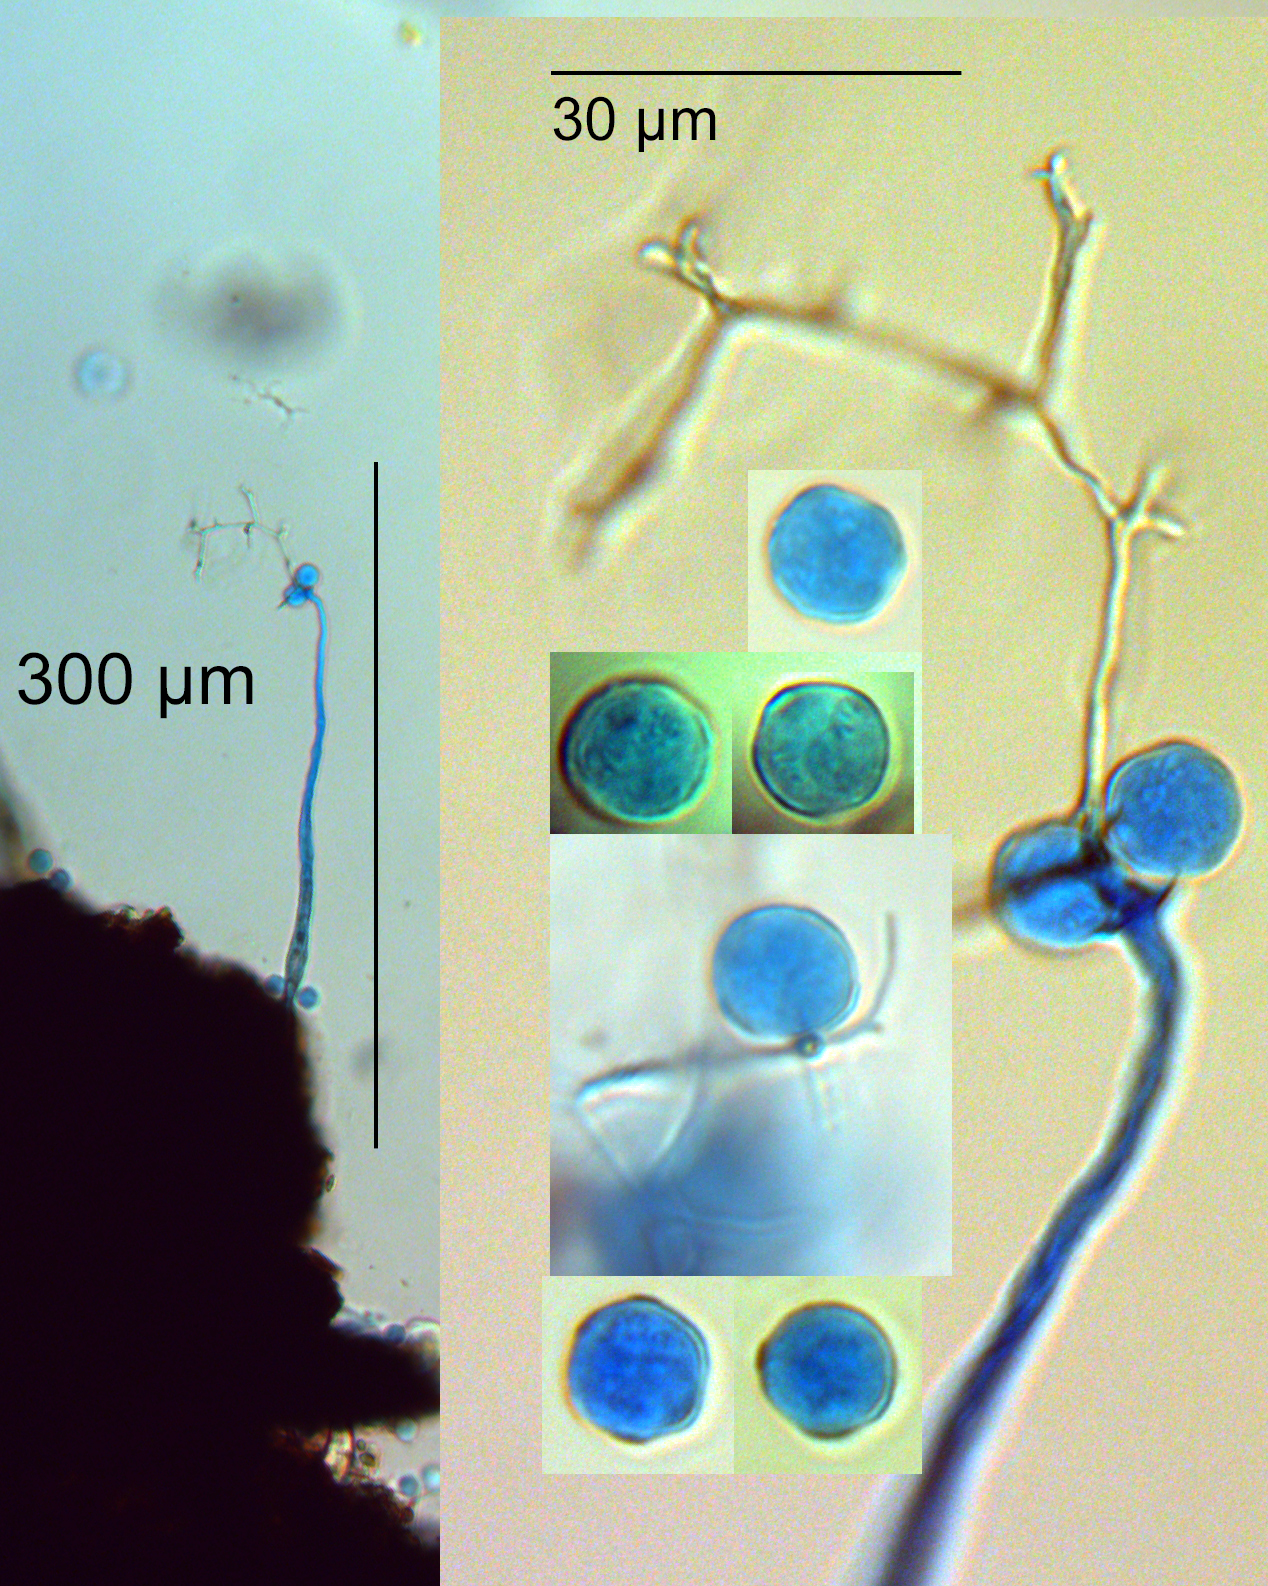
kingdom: Protozoa
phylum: Mycetozoa
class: Myxomycetes
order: Echinosteliales
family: Echinosteliaceae
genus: Echinostelium
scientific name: Echinostelium minutum
